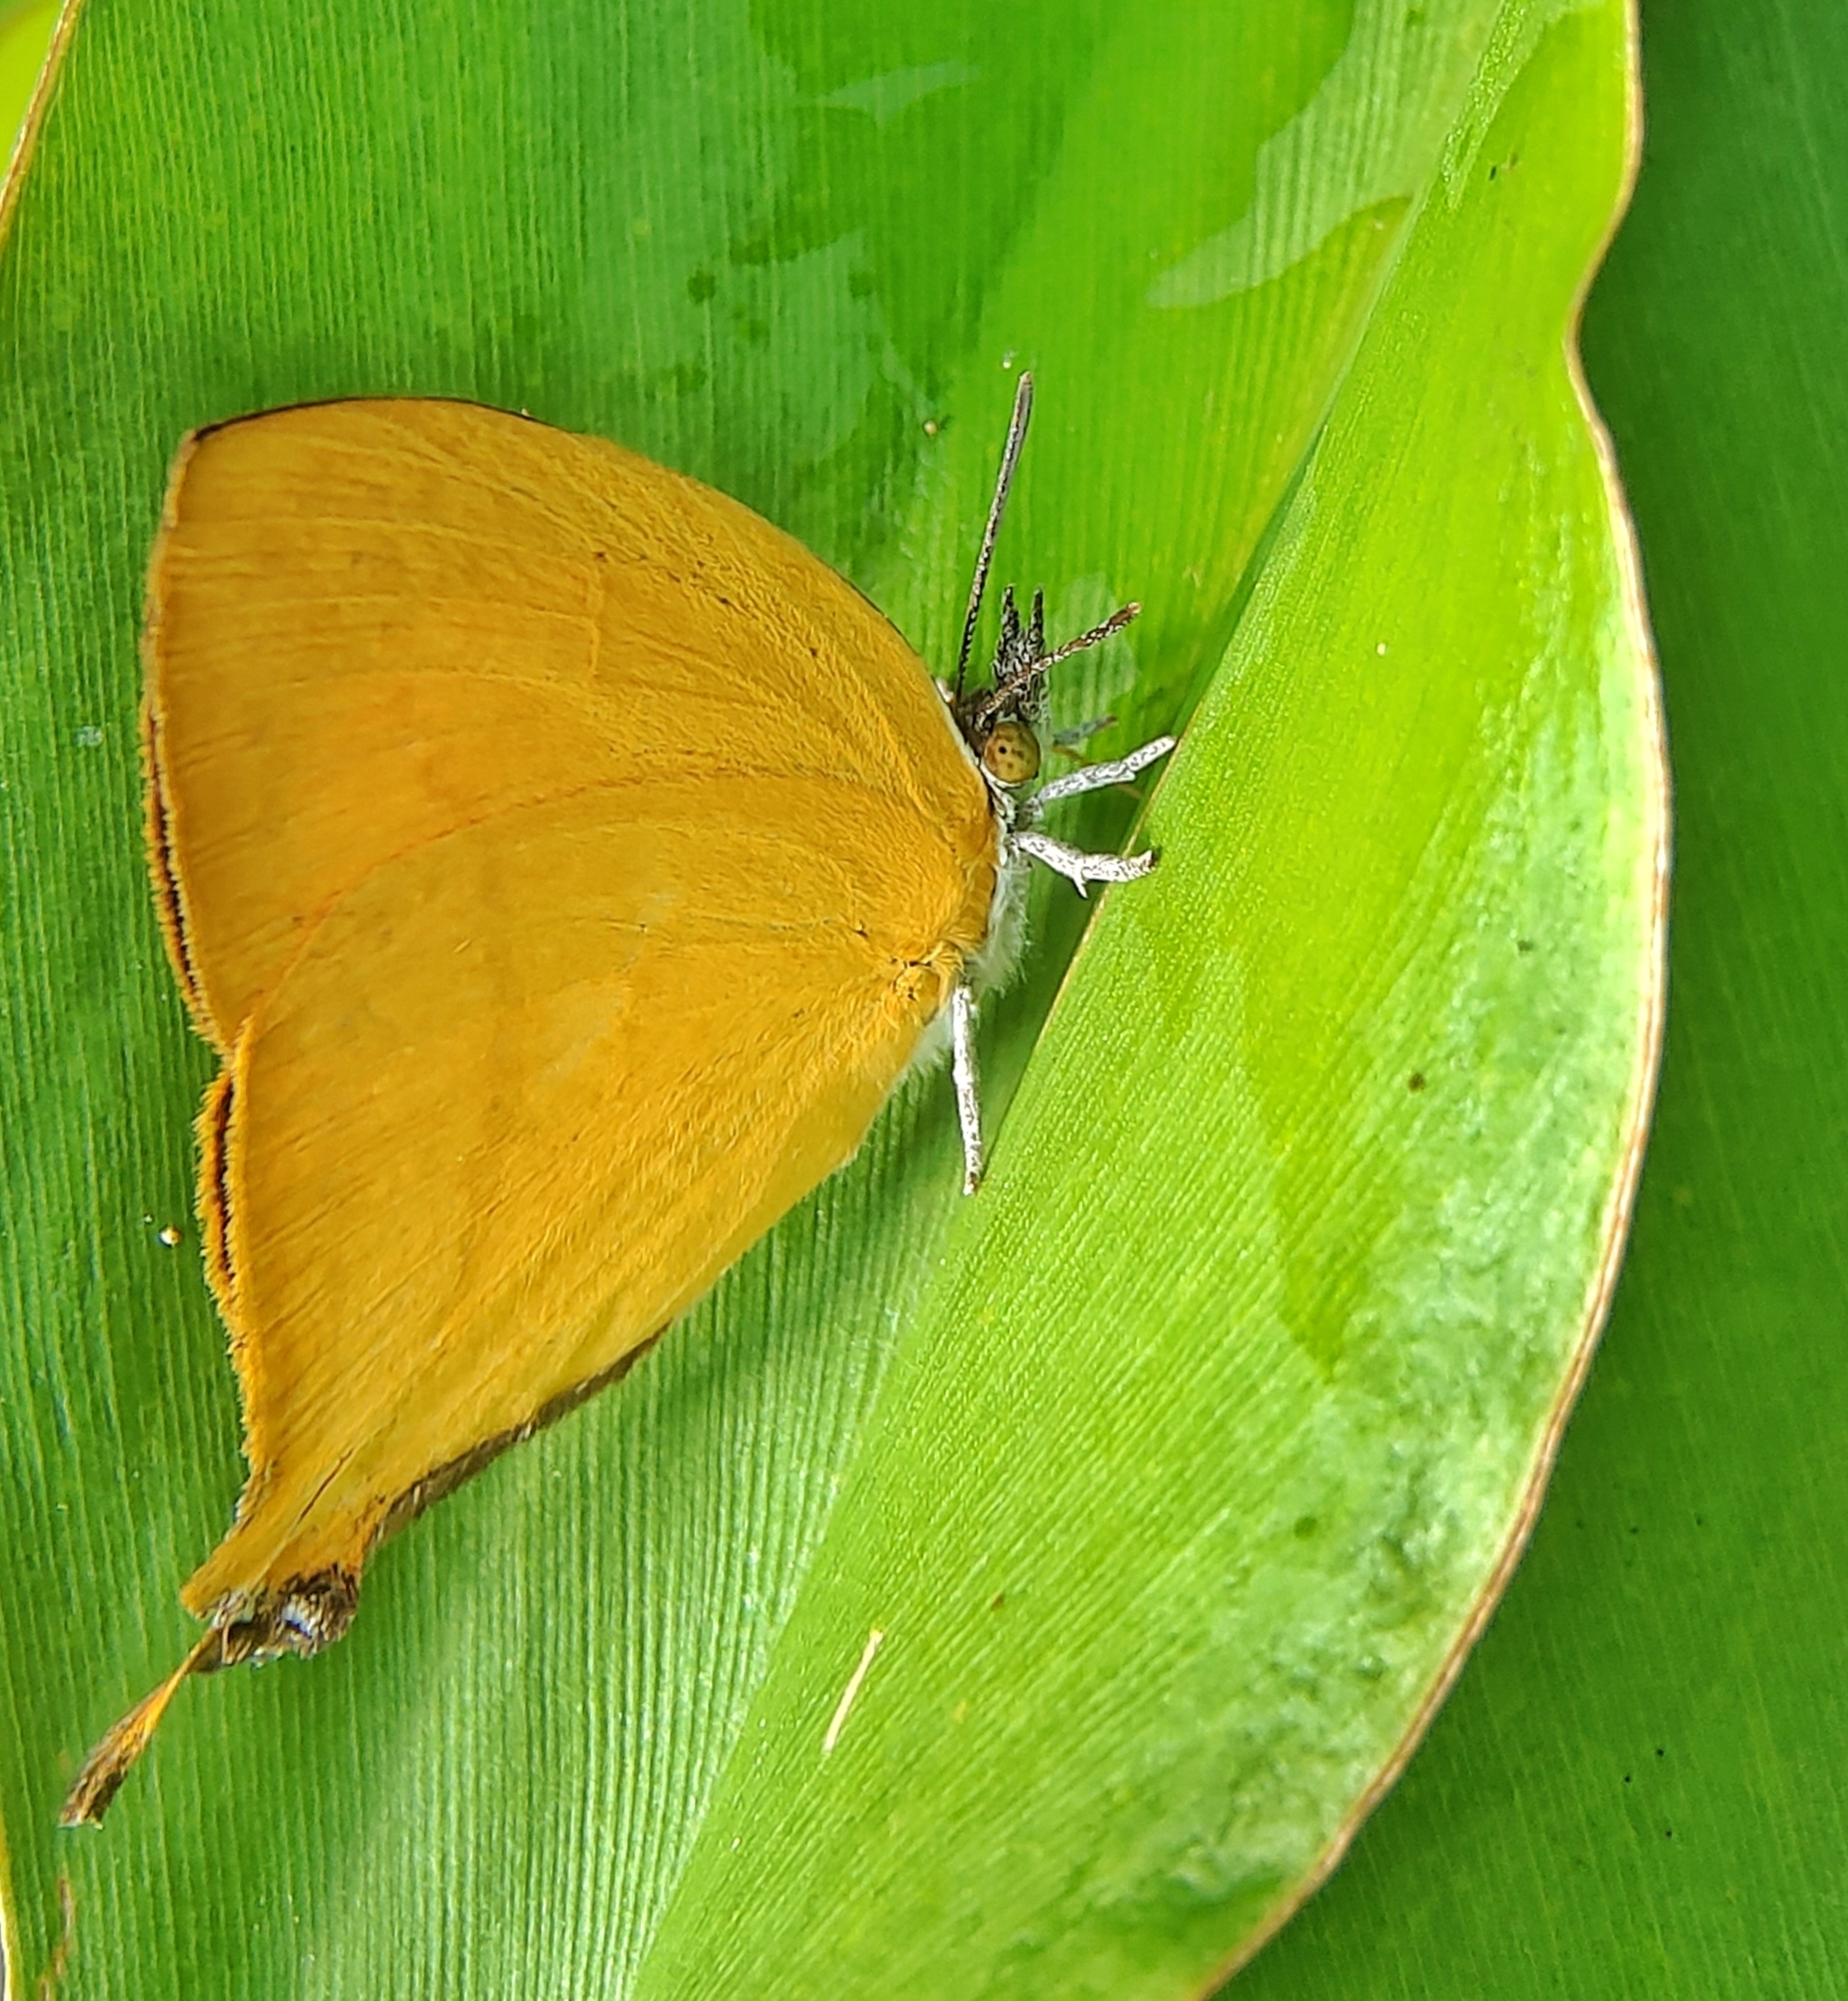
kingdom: Animalia
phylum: Arthropoda
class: Insecta
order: Lepidoptera
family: Lycaenidae
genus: Loxura
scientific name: Loxura atymnus
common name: Common yamfly
